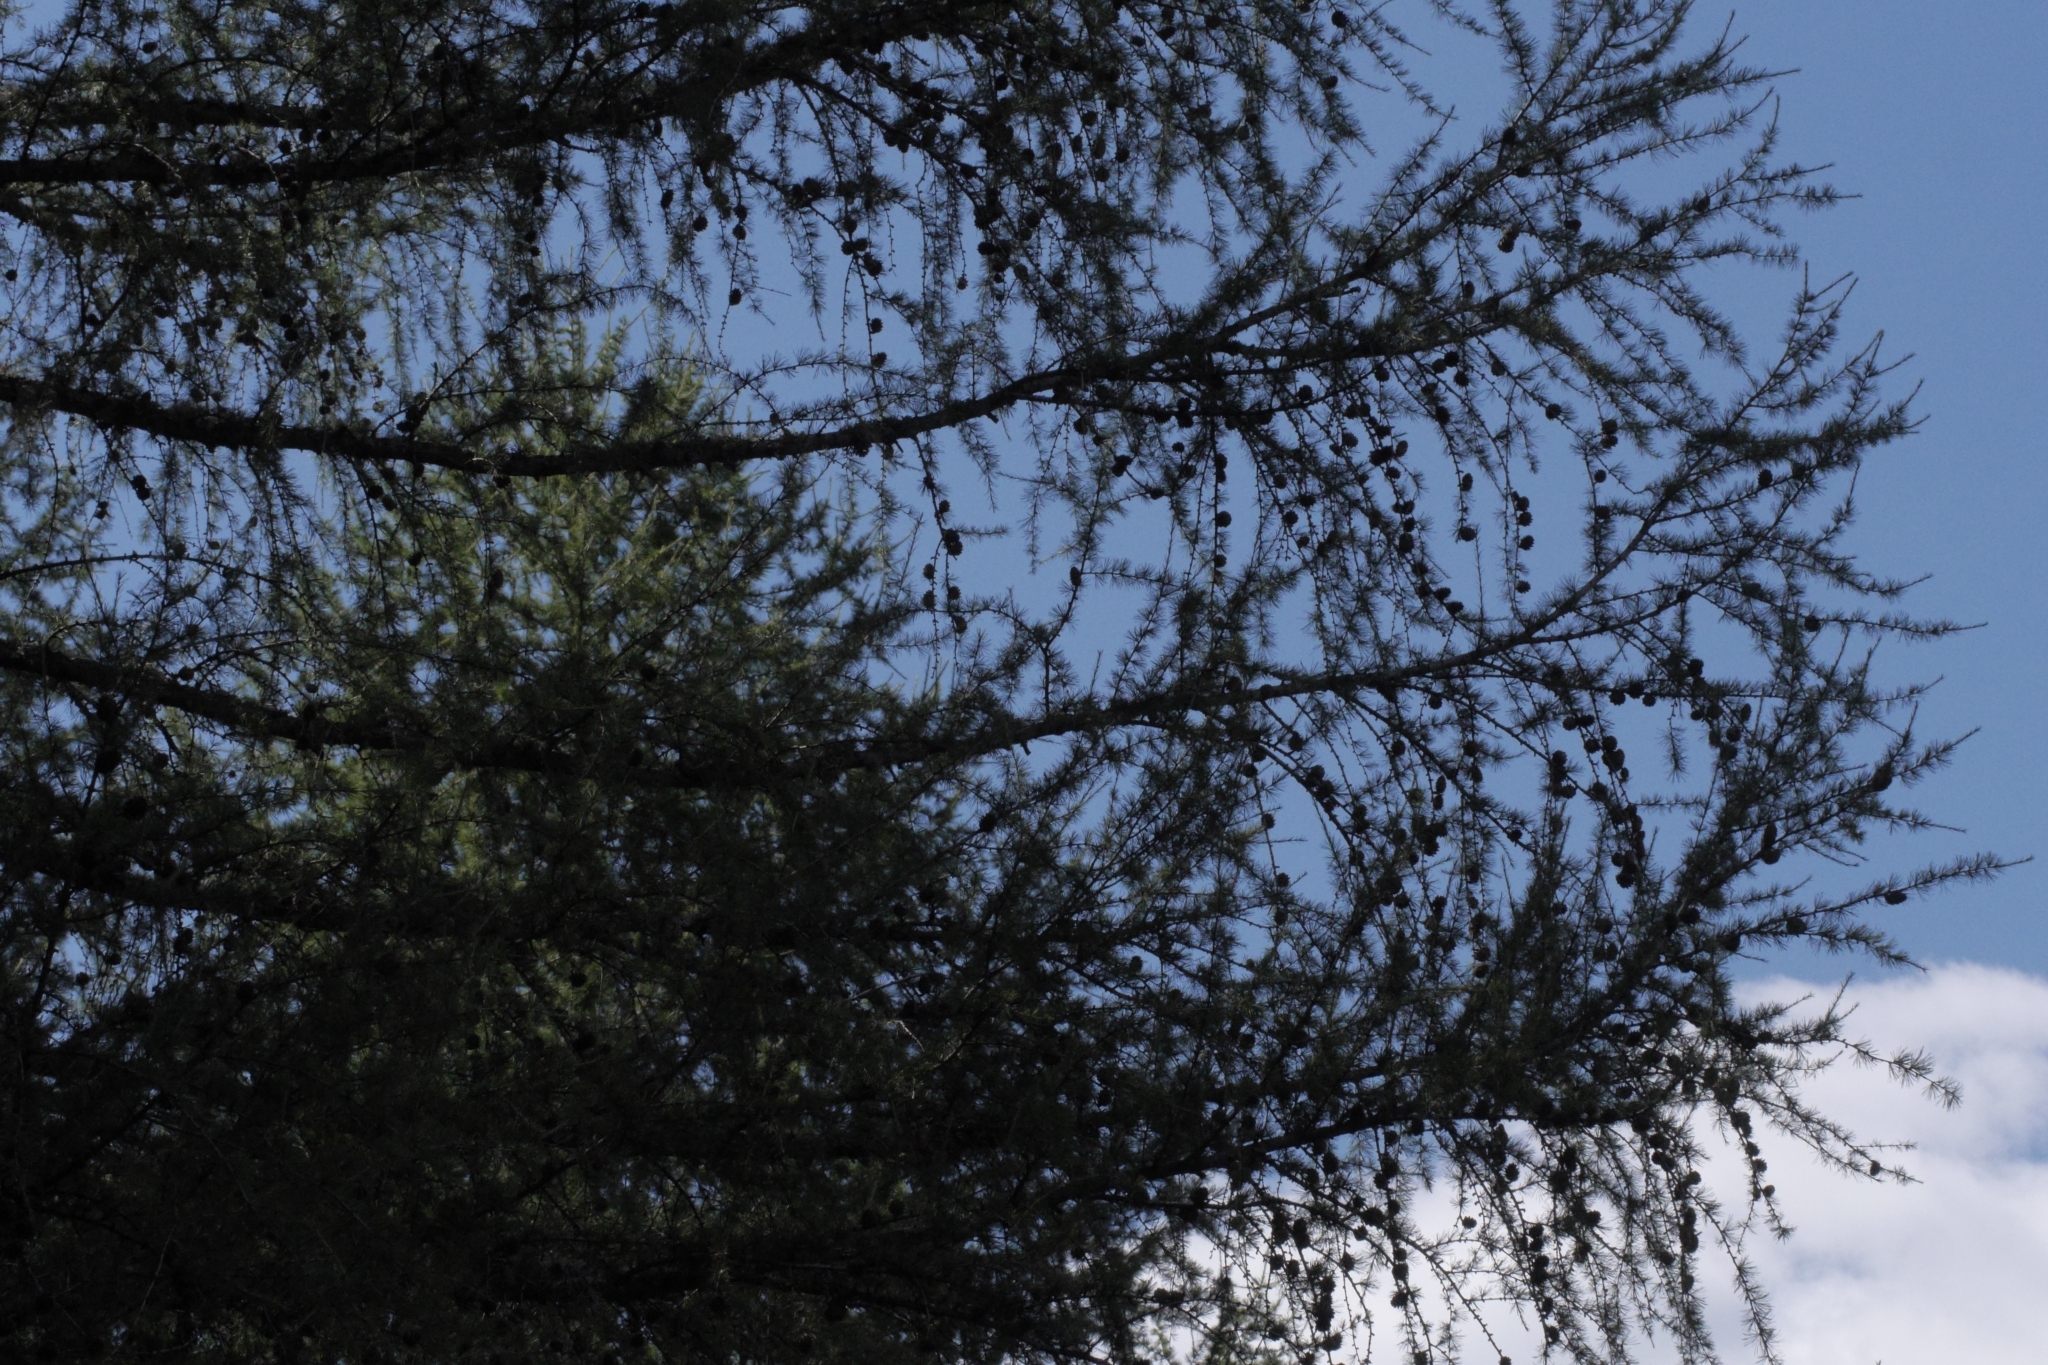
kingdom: Plantae
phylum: Tracheophyta
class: Pinopsida
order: Pinales
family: Pinaceae
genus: Larix
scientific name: Larix decidua
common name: European larch
